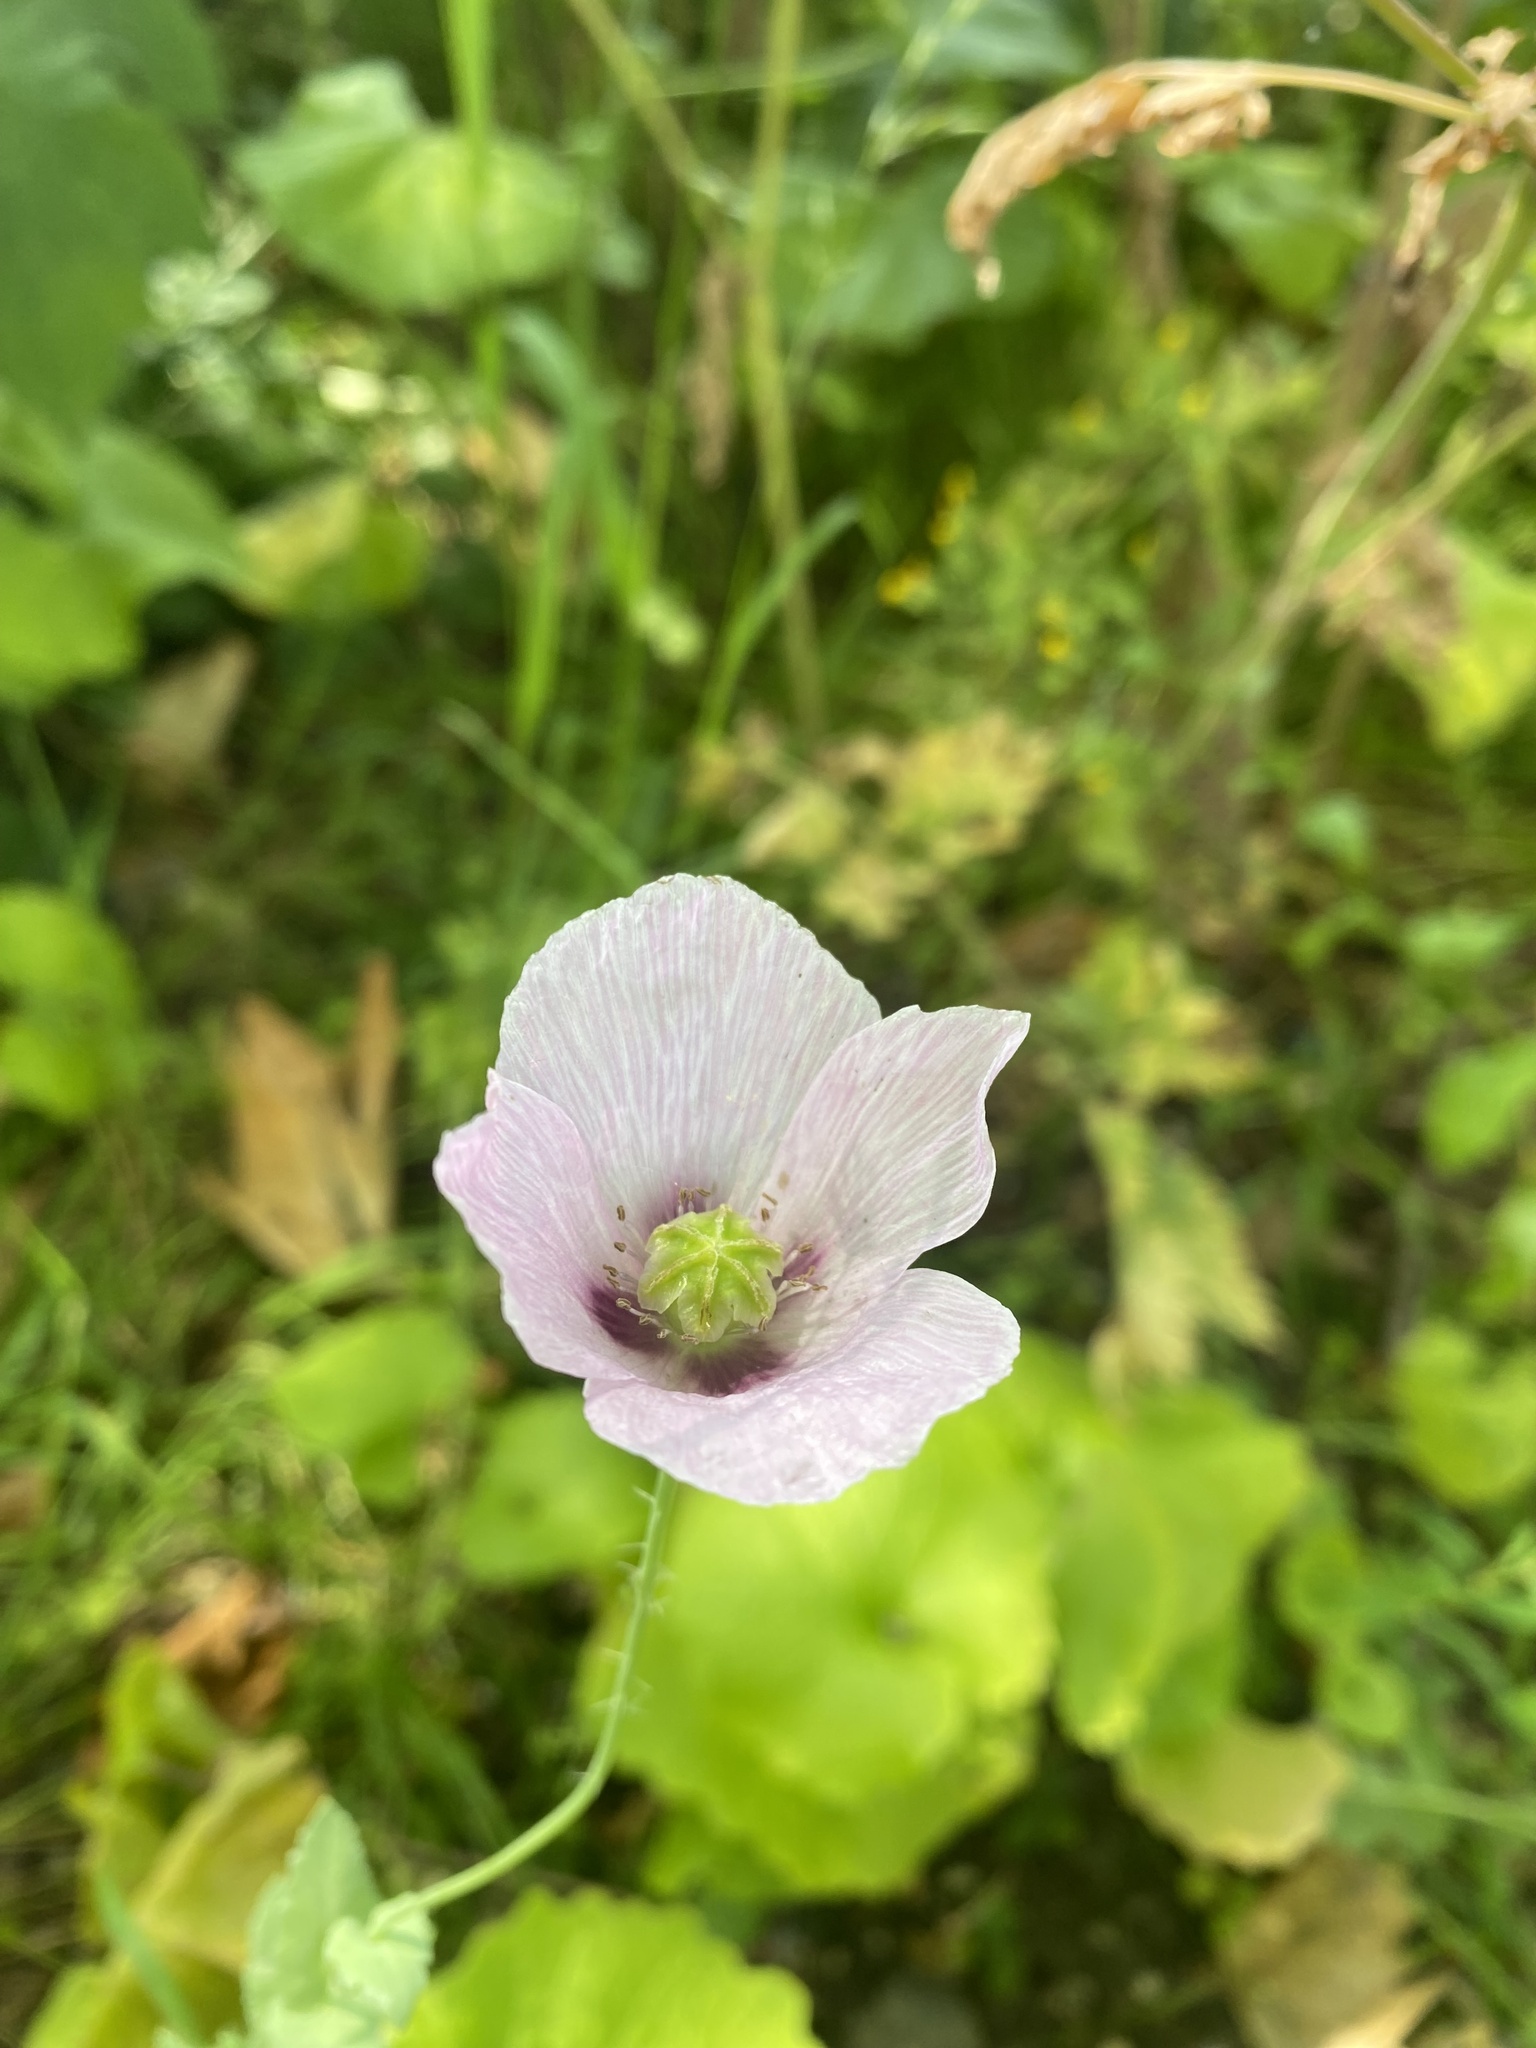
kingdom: Plantae
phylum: Tracheophyta
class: Magnoliopsida
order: Ranunculales
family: Papaveraceae
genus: Papaver
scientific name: Papaver somniferum
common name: Opium poppy
